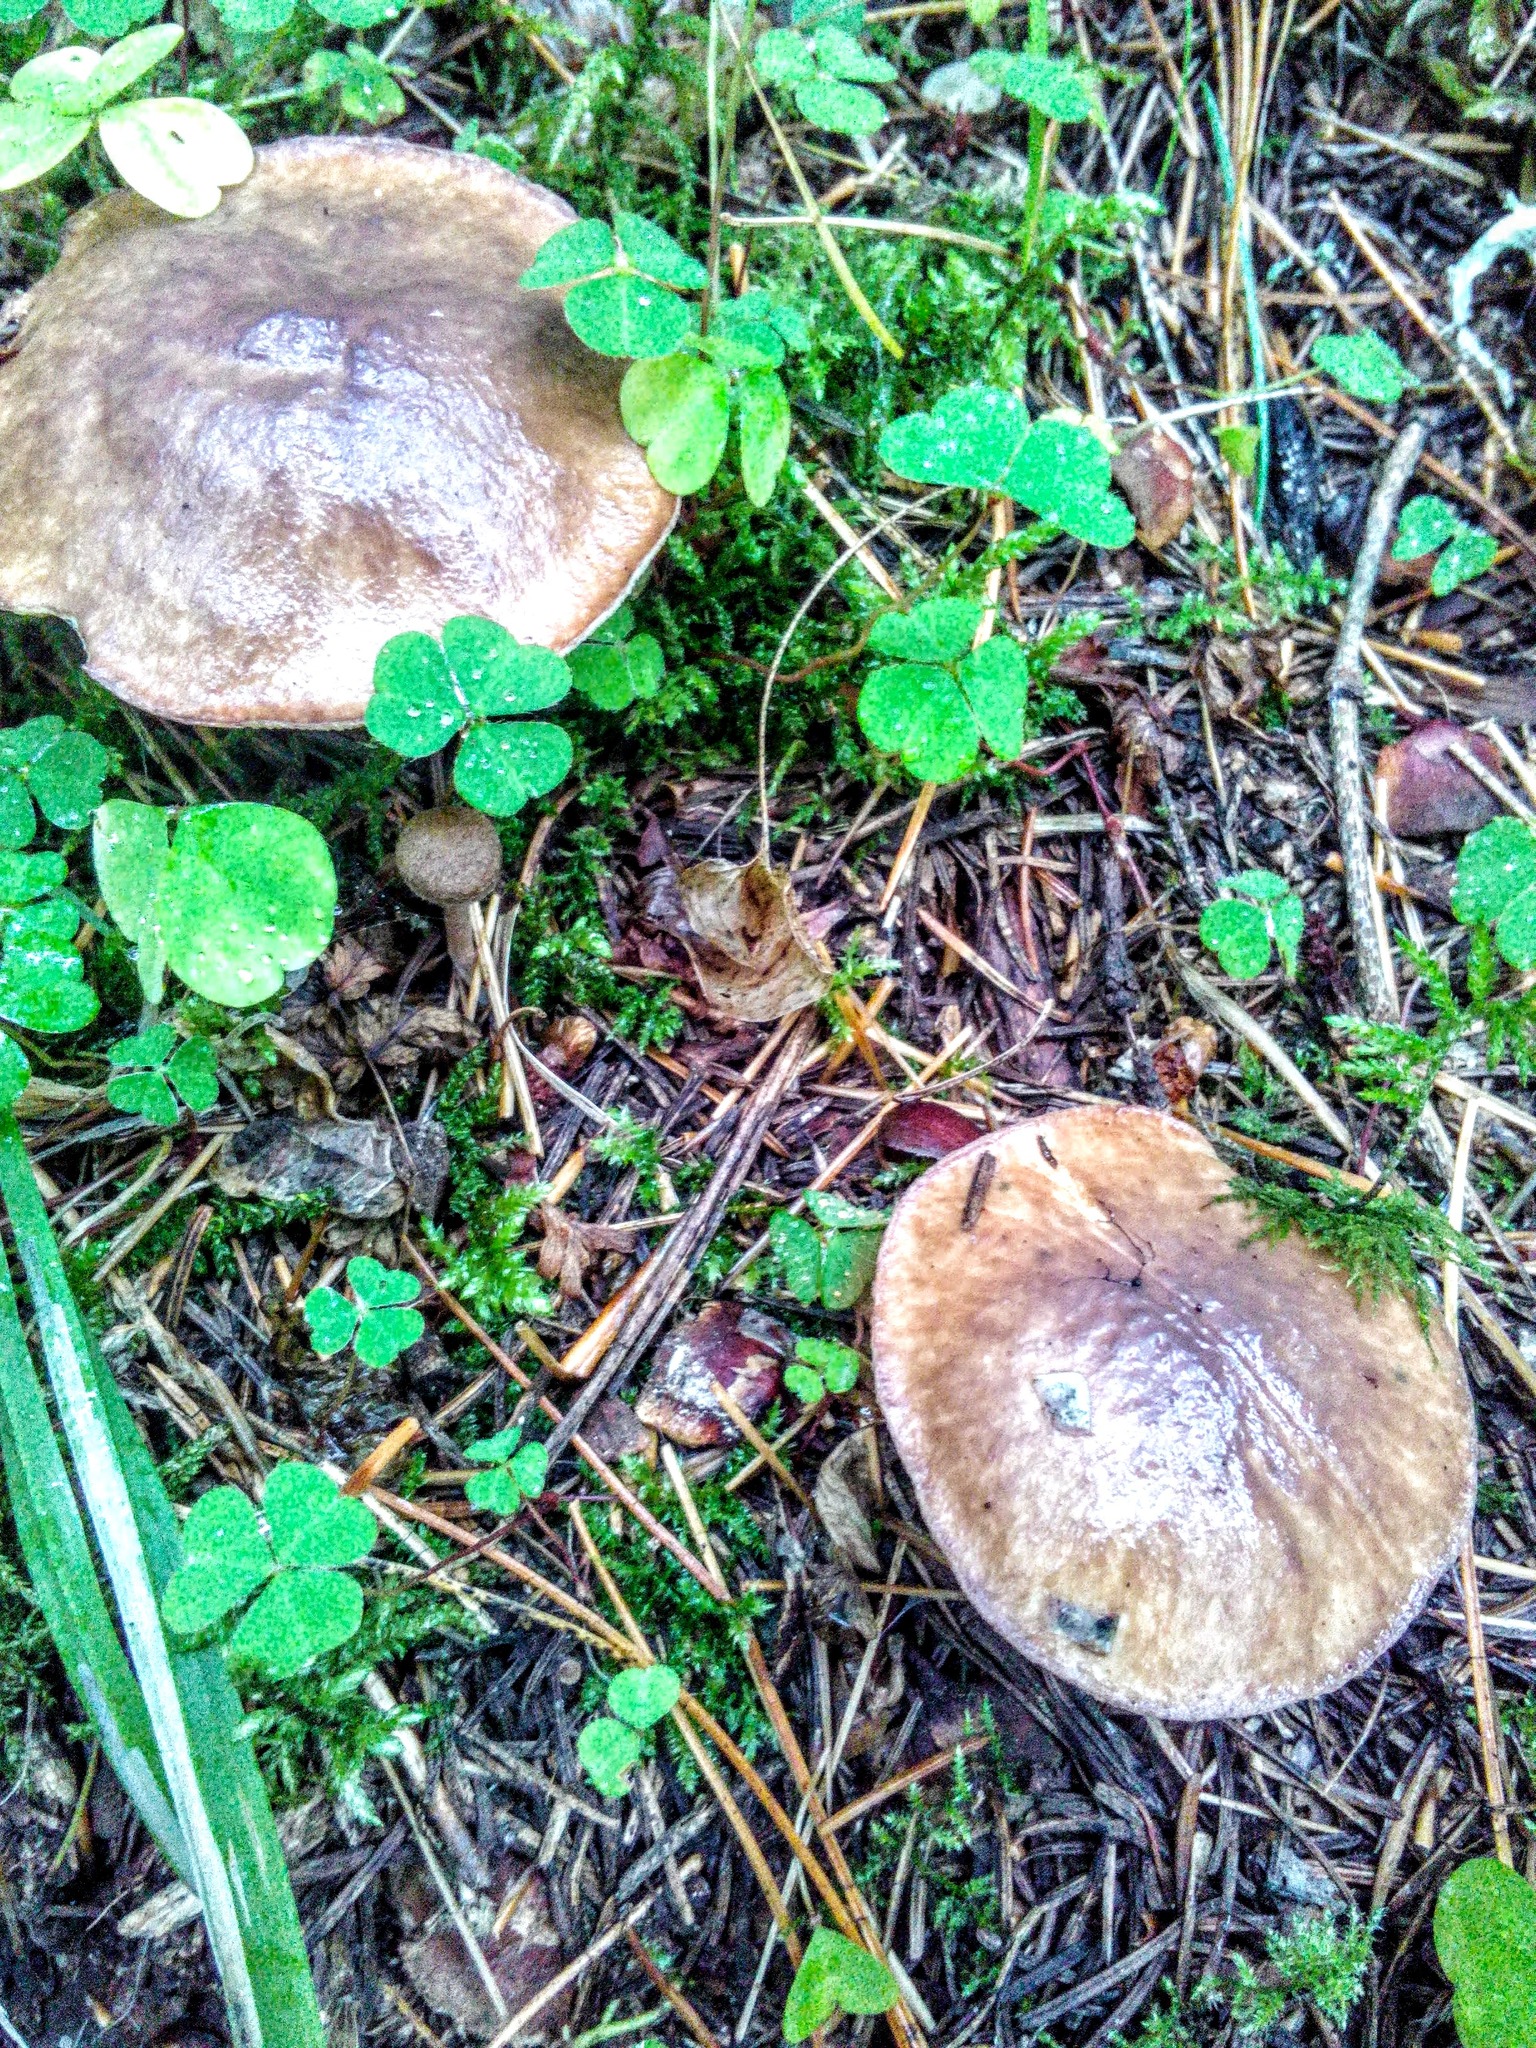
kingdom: Fungi
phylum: Basidiomycota
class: Agaricomycetes
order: Boletales
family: Suillaceae
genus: Suillus
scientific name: Suillus placidus
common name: Slippery white bolete
